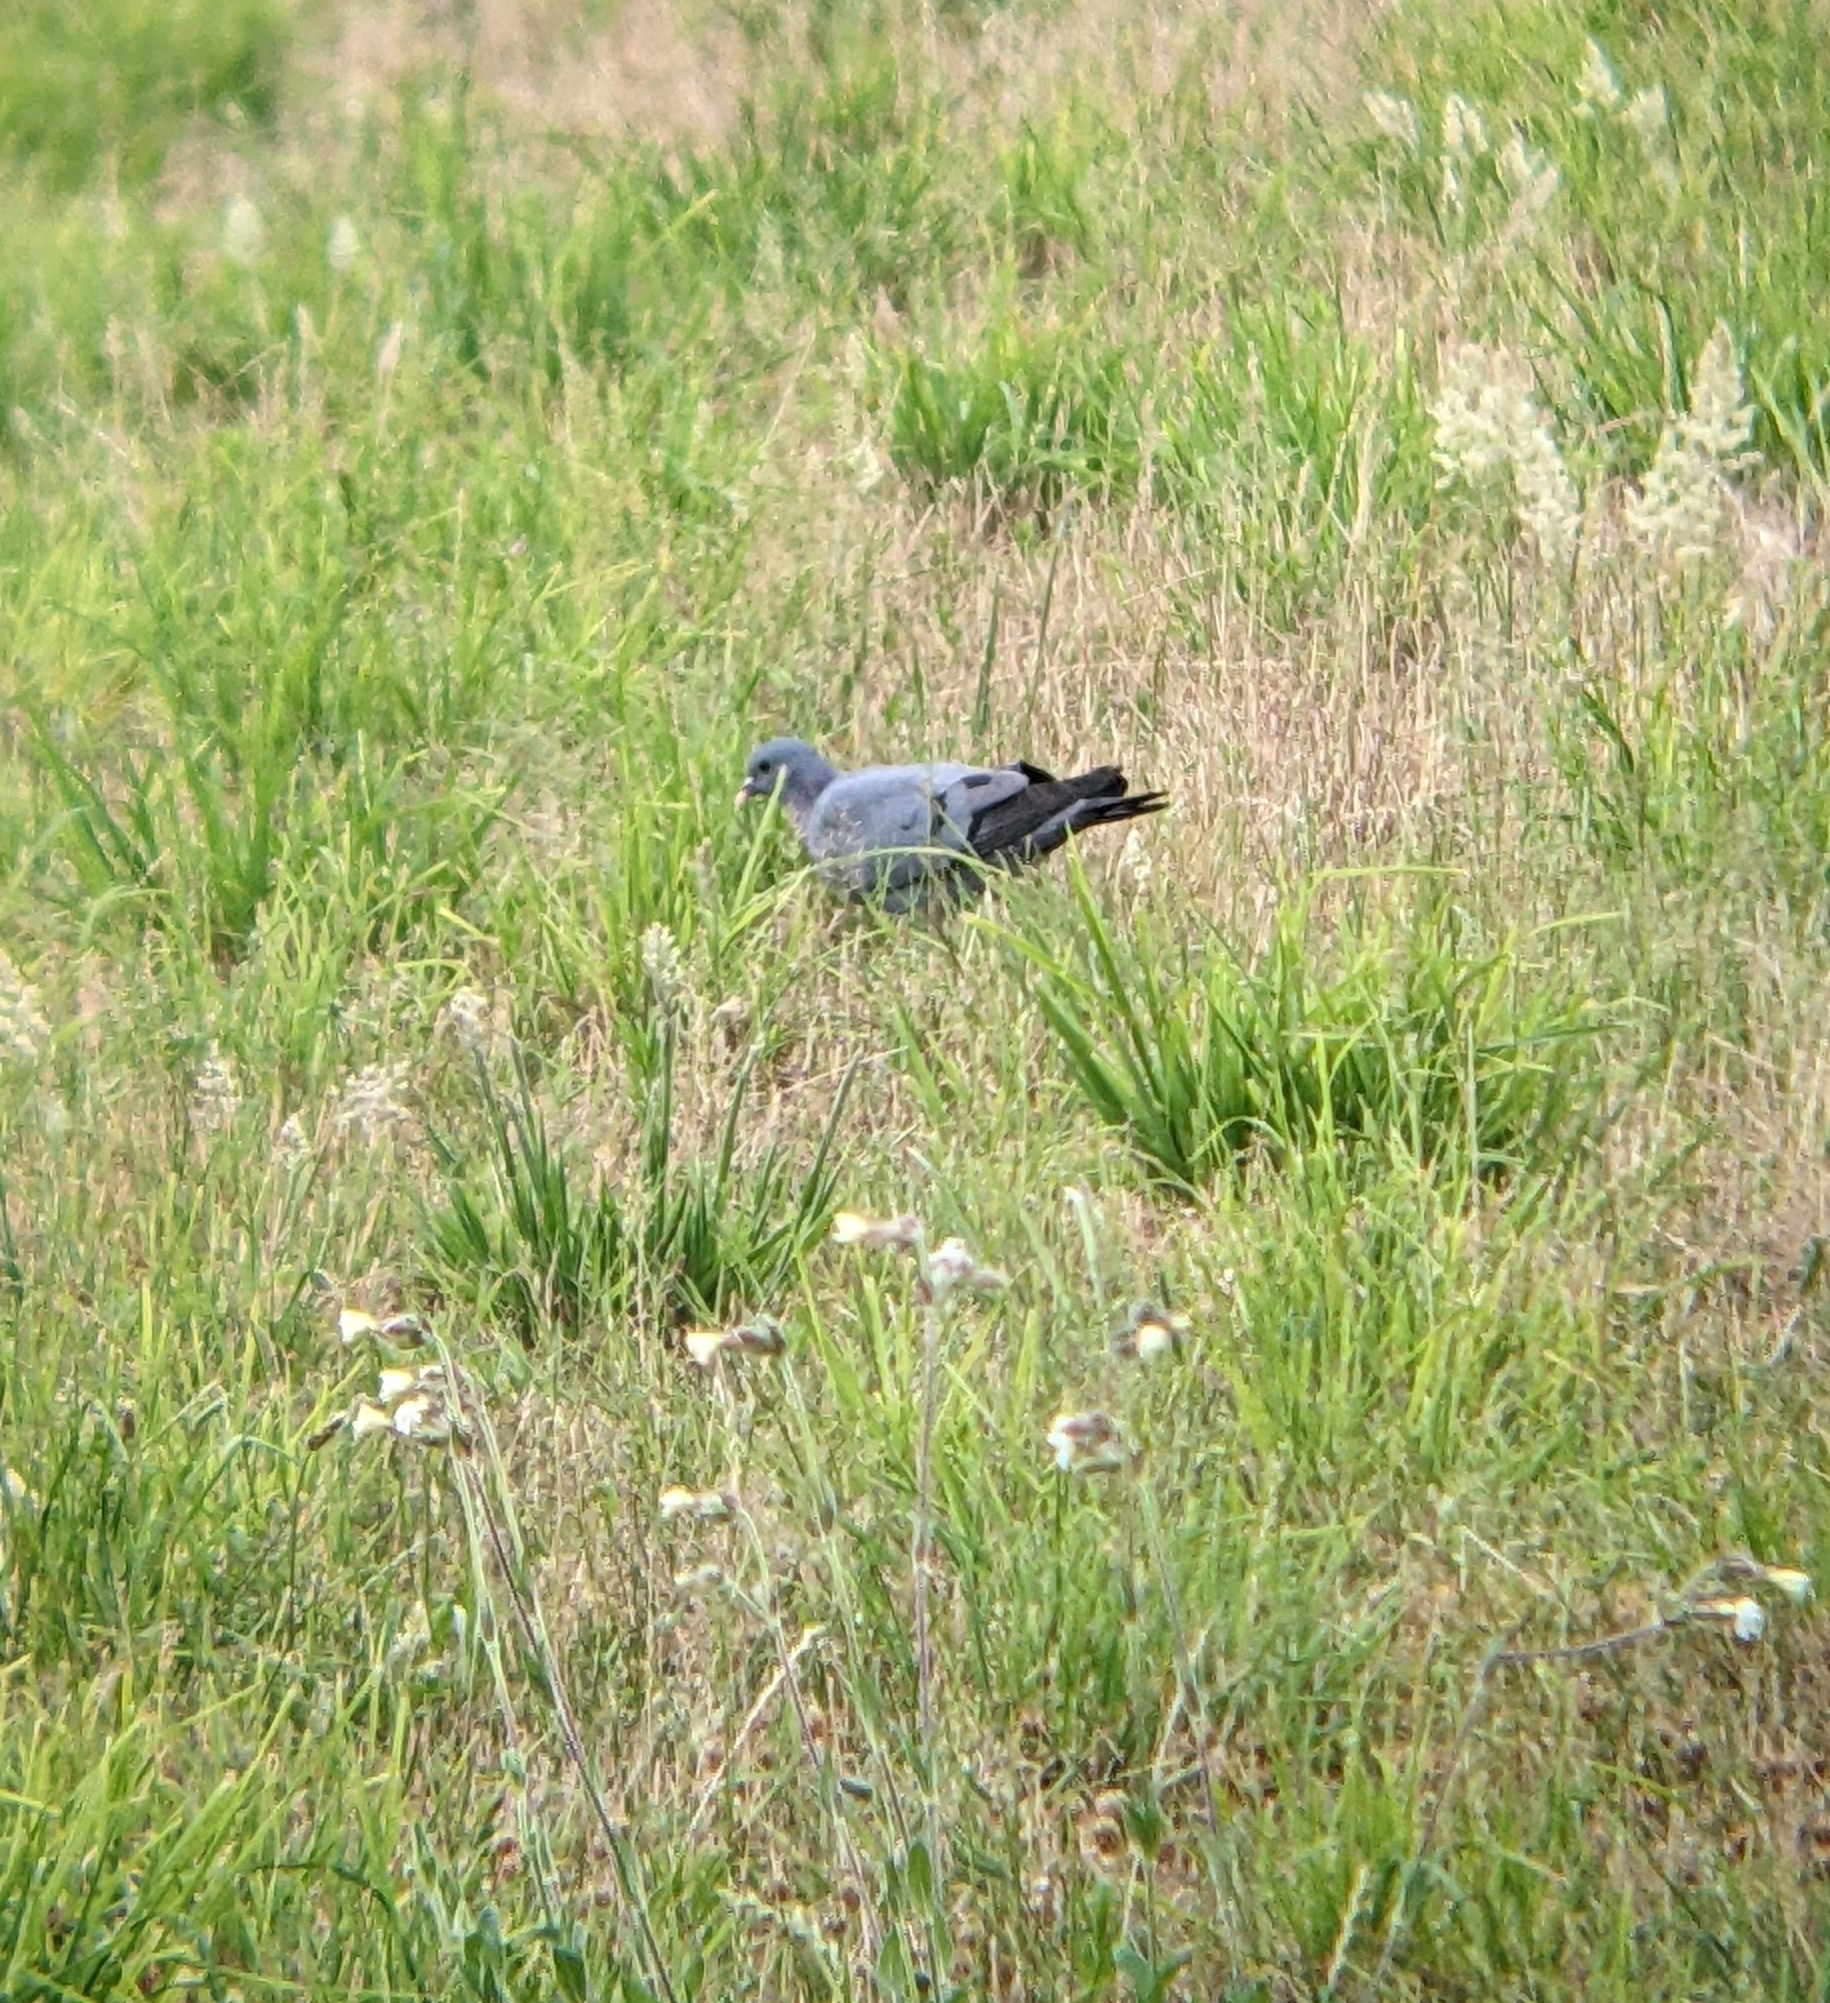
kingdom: Animalia
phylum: Chordata
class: Aves
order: Columbiformes
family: Columbidae
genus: Columba
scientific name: Columba oenas
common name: Stock dove
